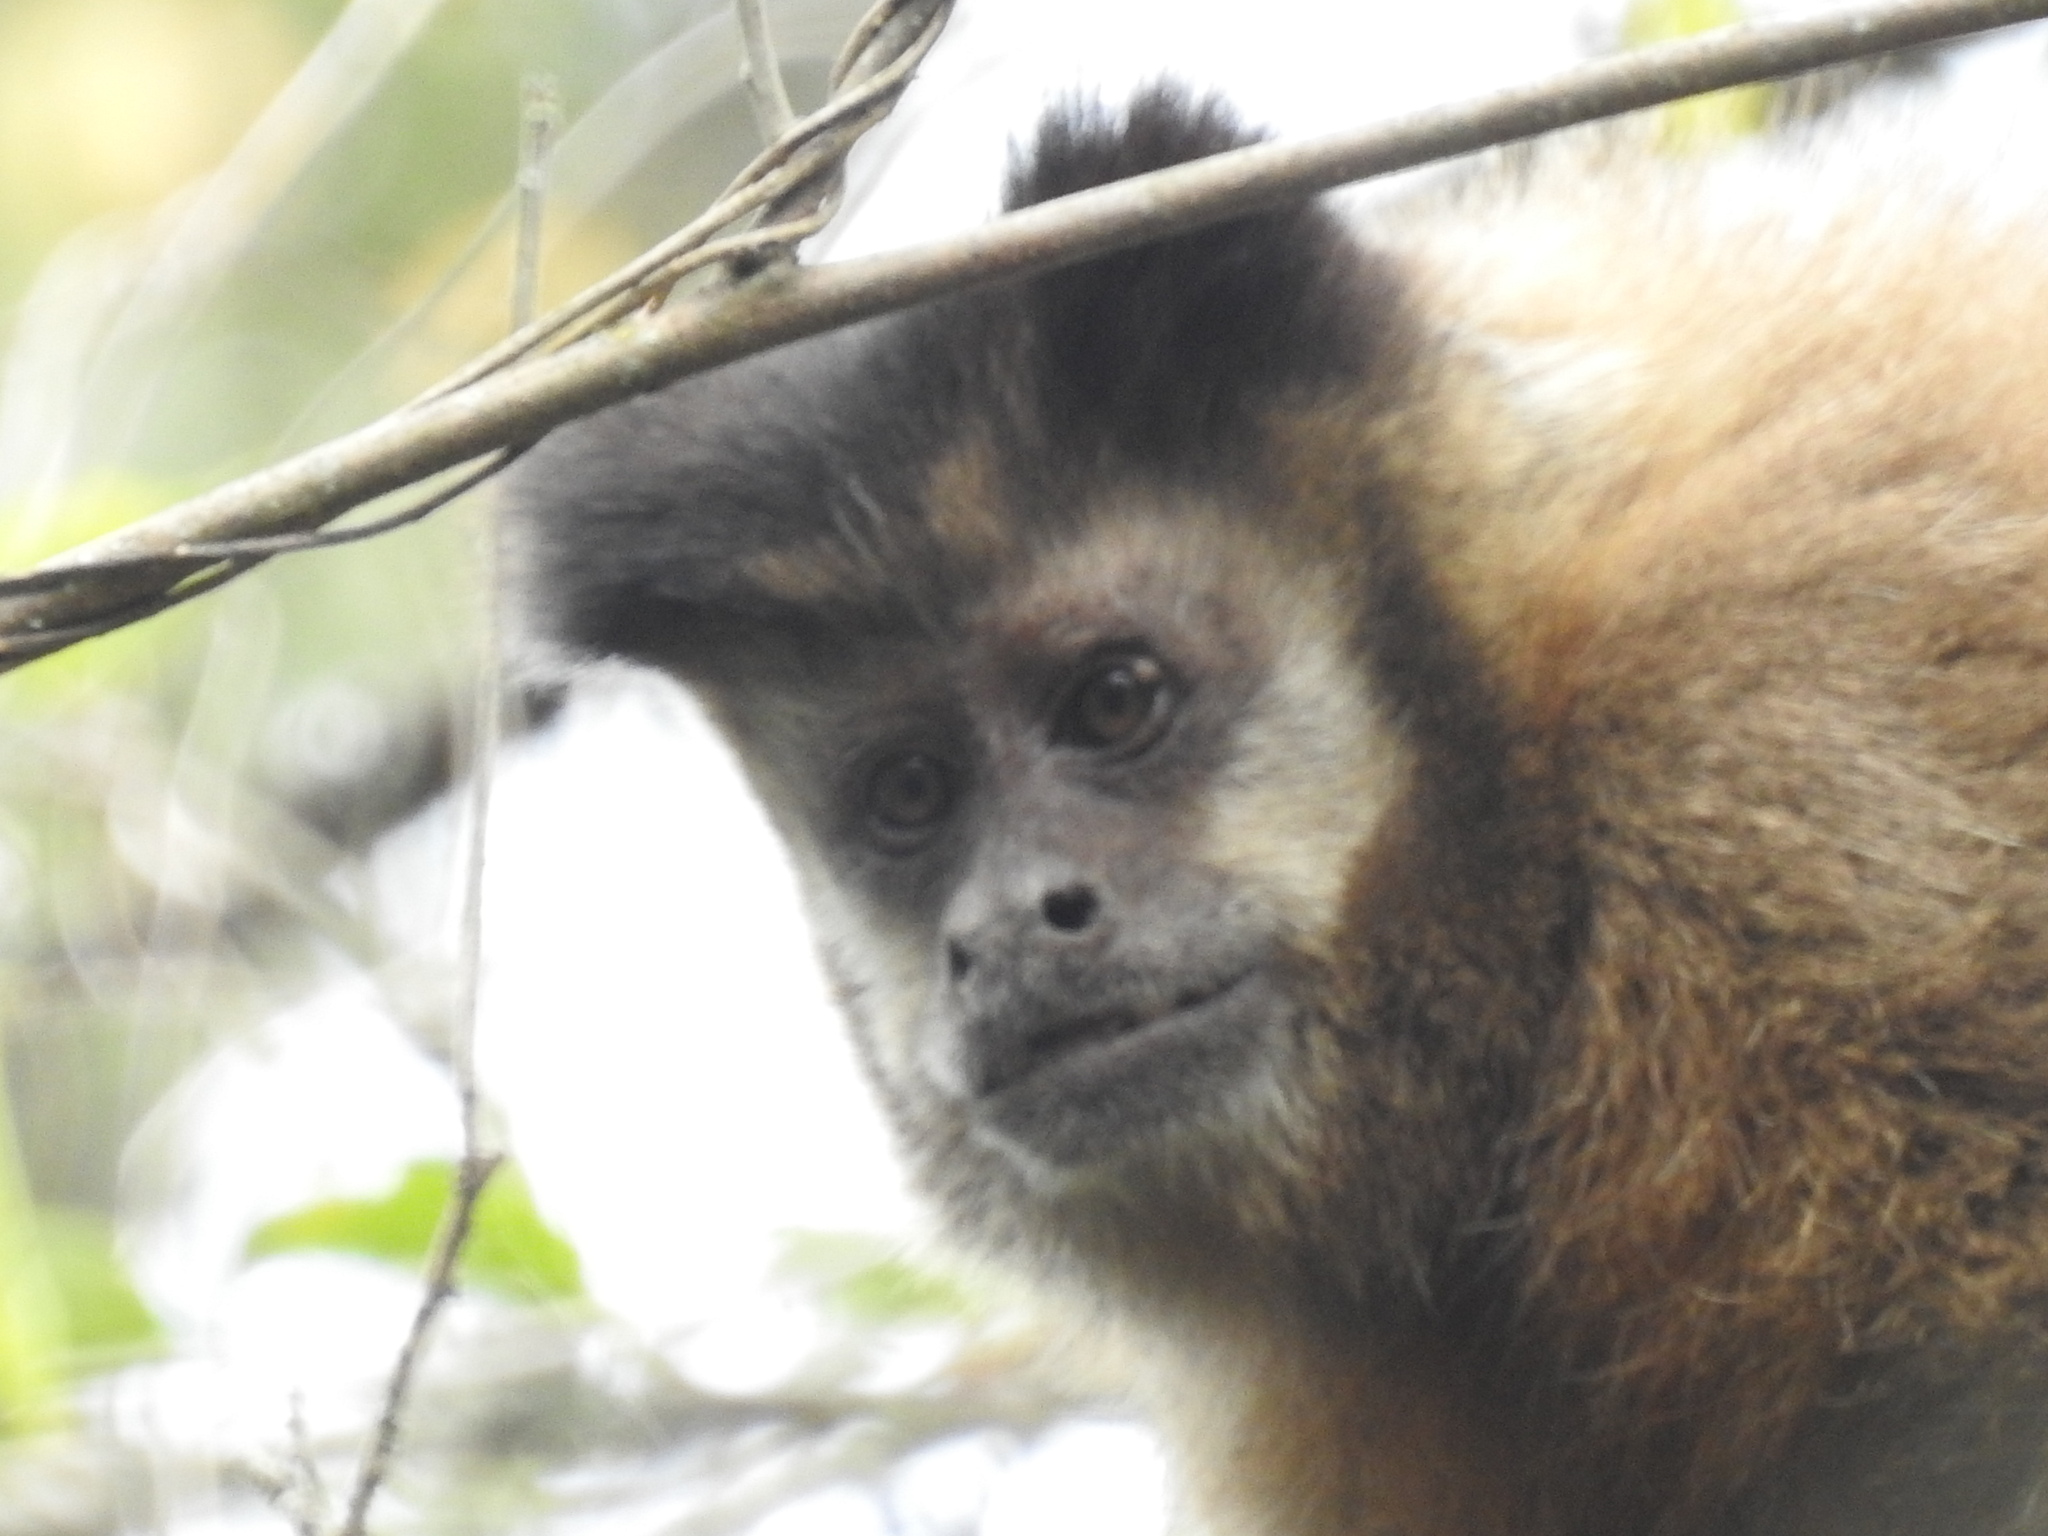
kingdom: Animalia
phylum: Chordata
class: Mammalia
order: Primates
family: Cebidae
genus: Sapajus
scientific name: Sapajus cay
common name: Hooded capuchin
